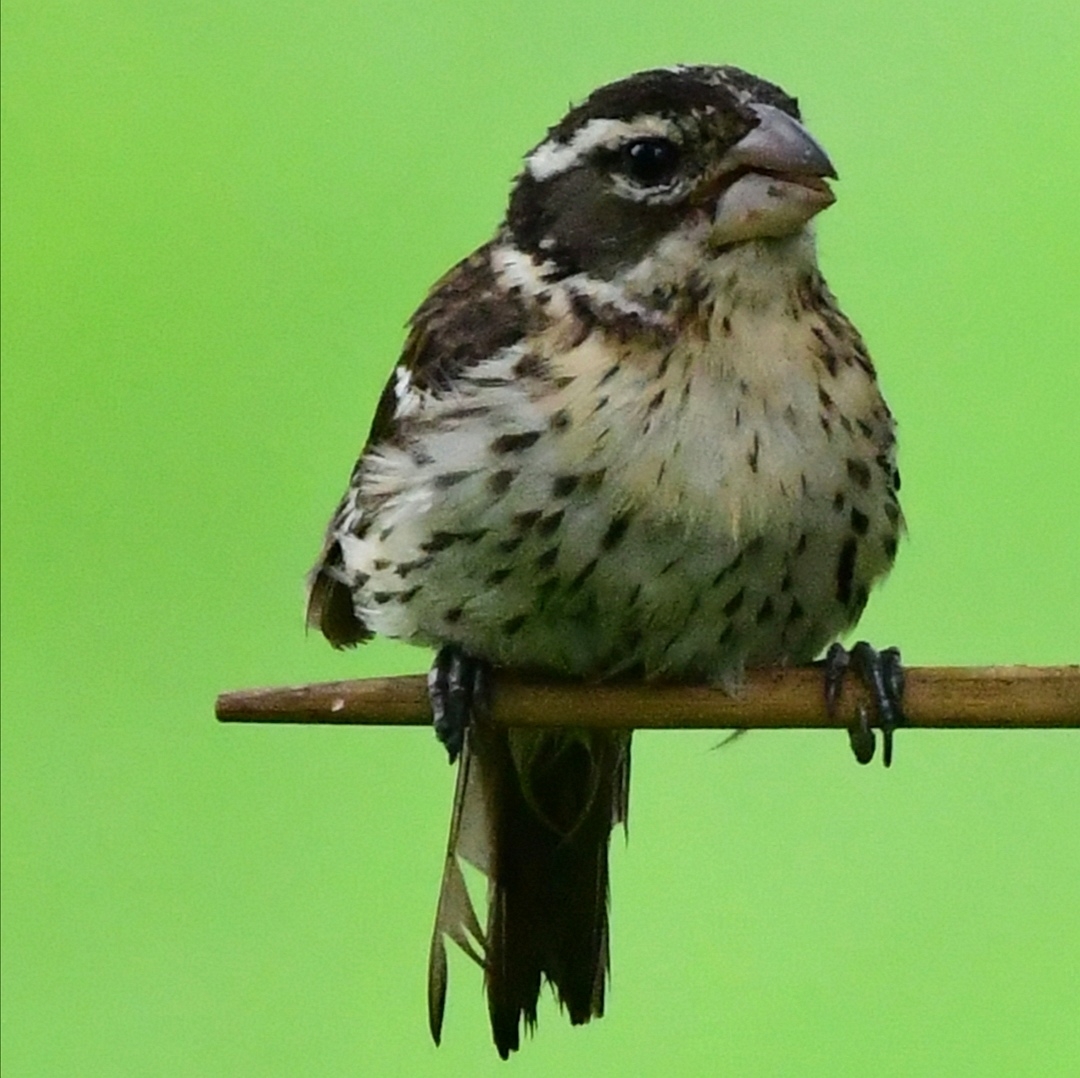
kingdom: Animalia
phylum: Chordata
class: Aves
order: Passeriformes
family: Cardinalidae
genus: Pheucticus
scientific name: Pheucticus ludovicianus
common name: Rose-breasted grosbeak
